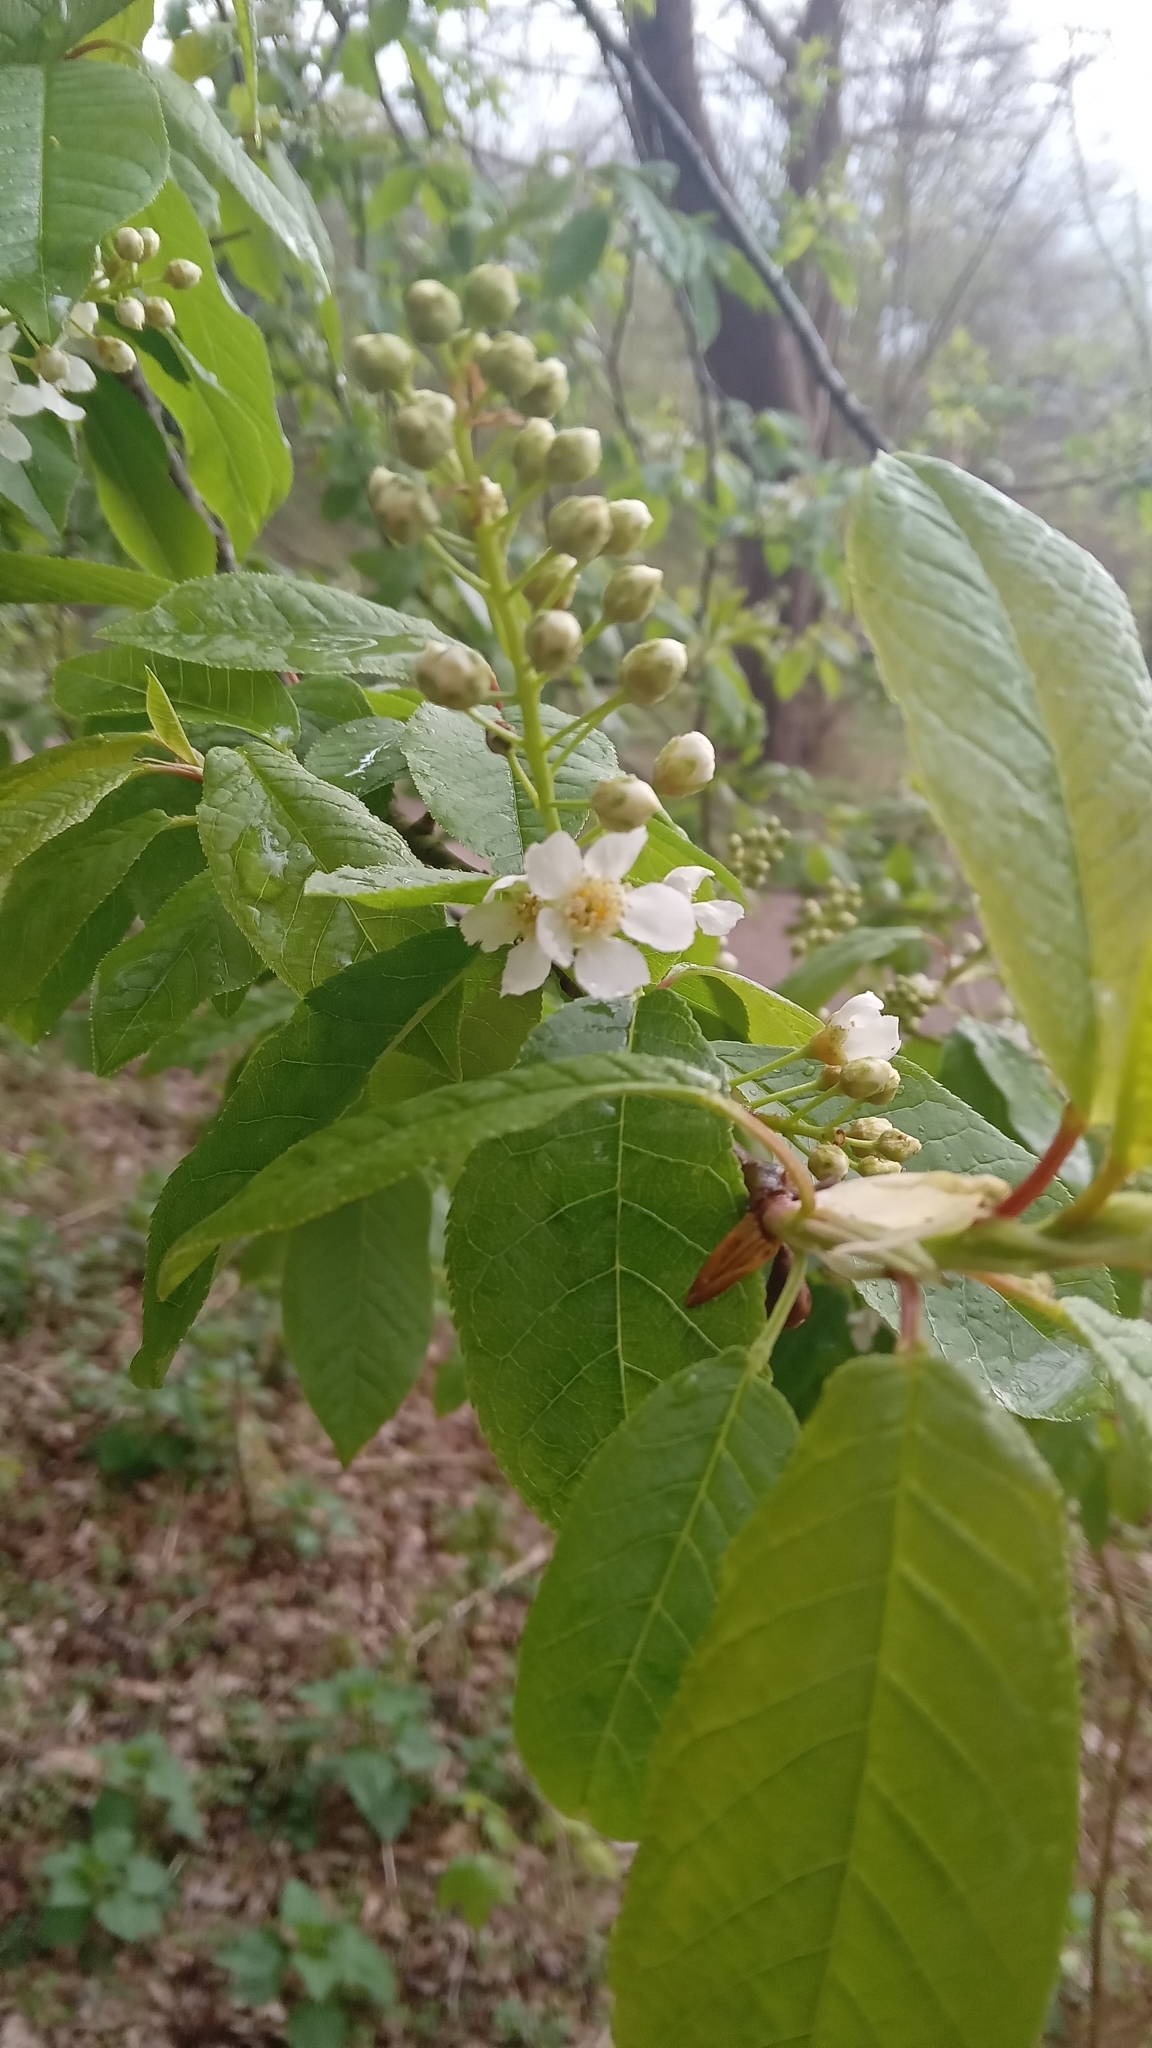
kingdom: Plantae
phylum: Tracheophyta
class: Magnoliopsida
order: Rosales
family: Rosaceae
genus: Prunus
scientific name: Prunus padus
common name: Bird cherry
